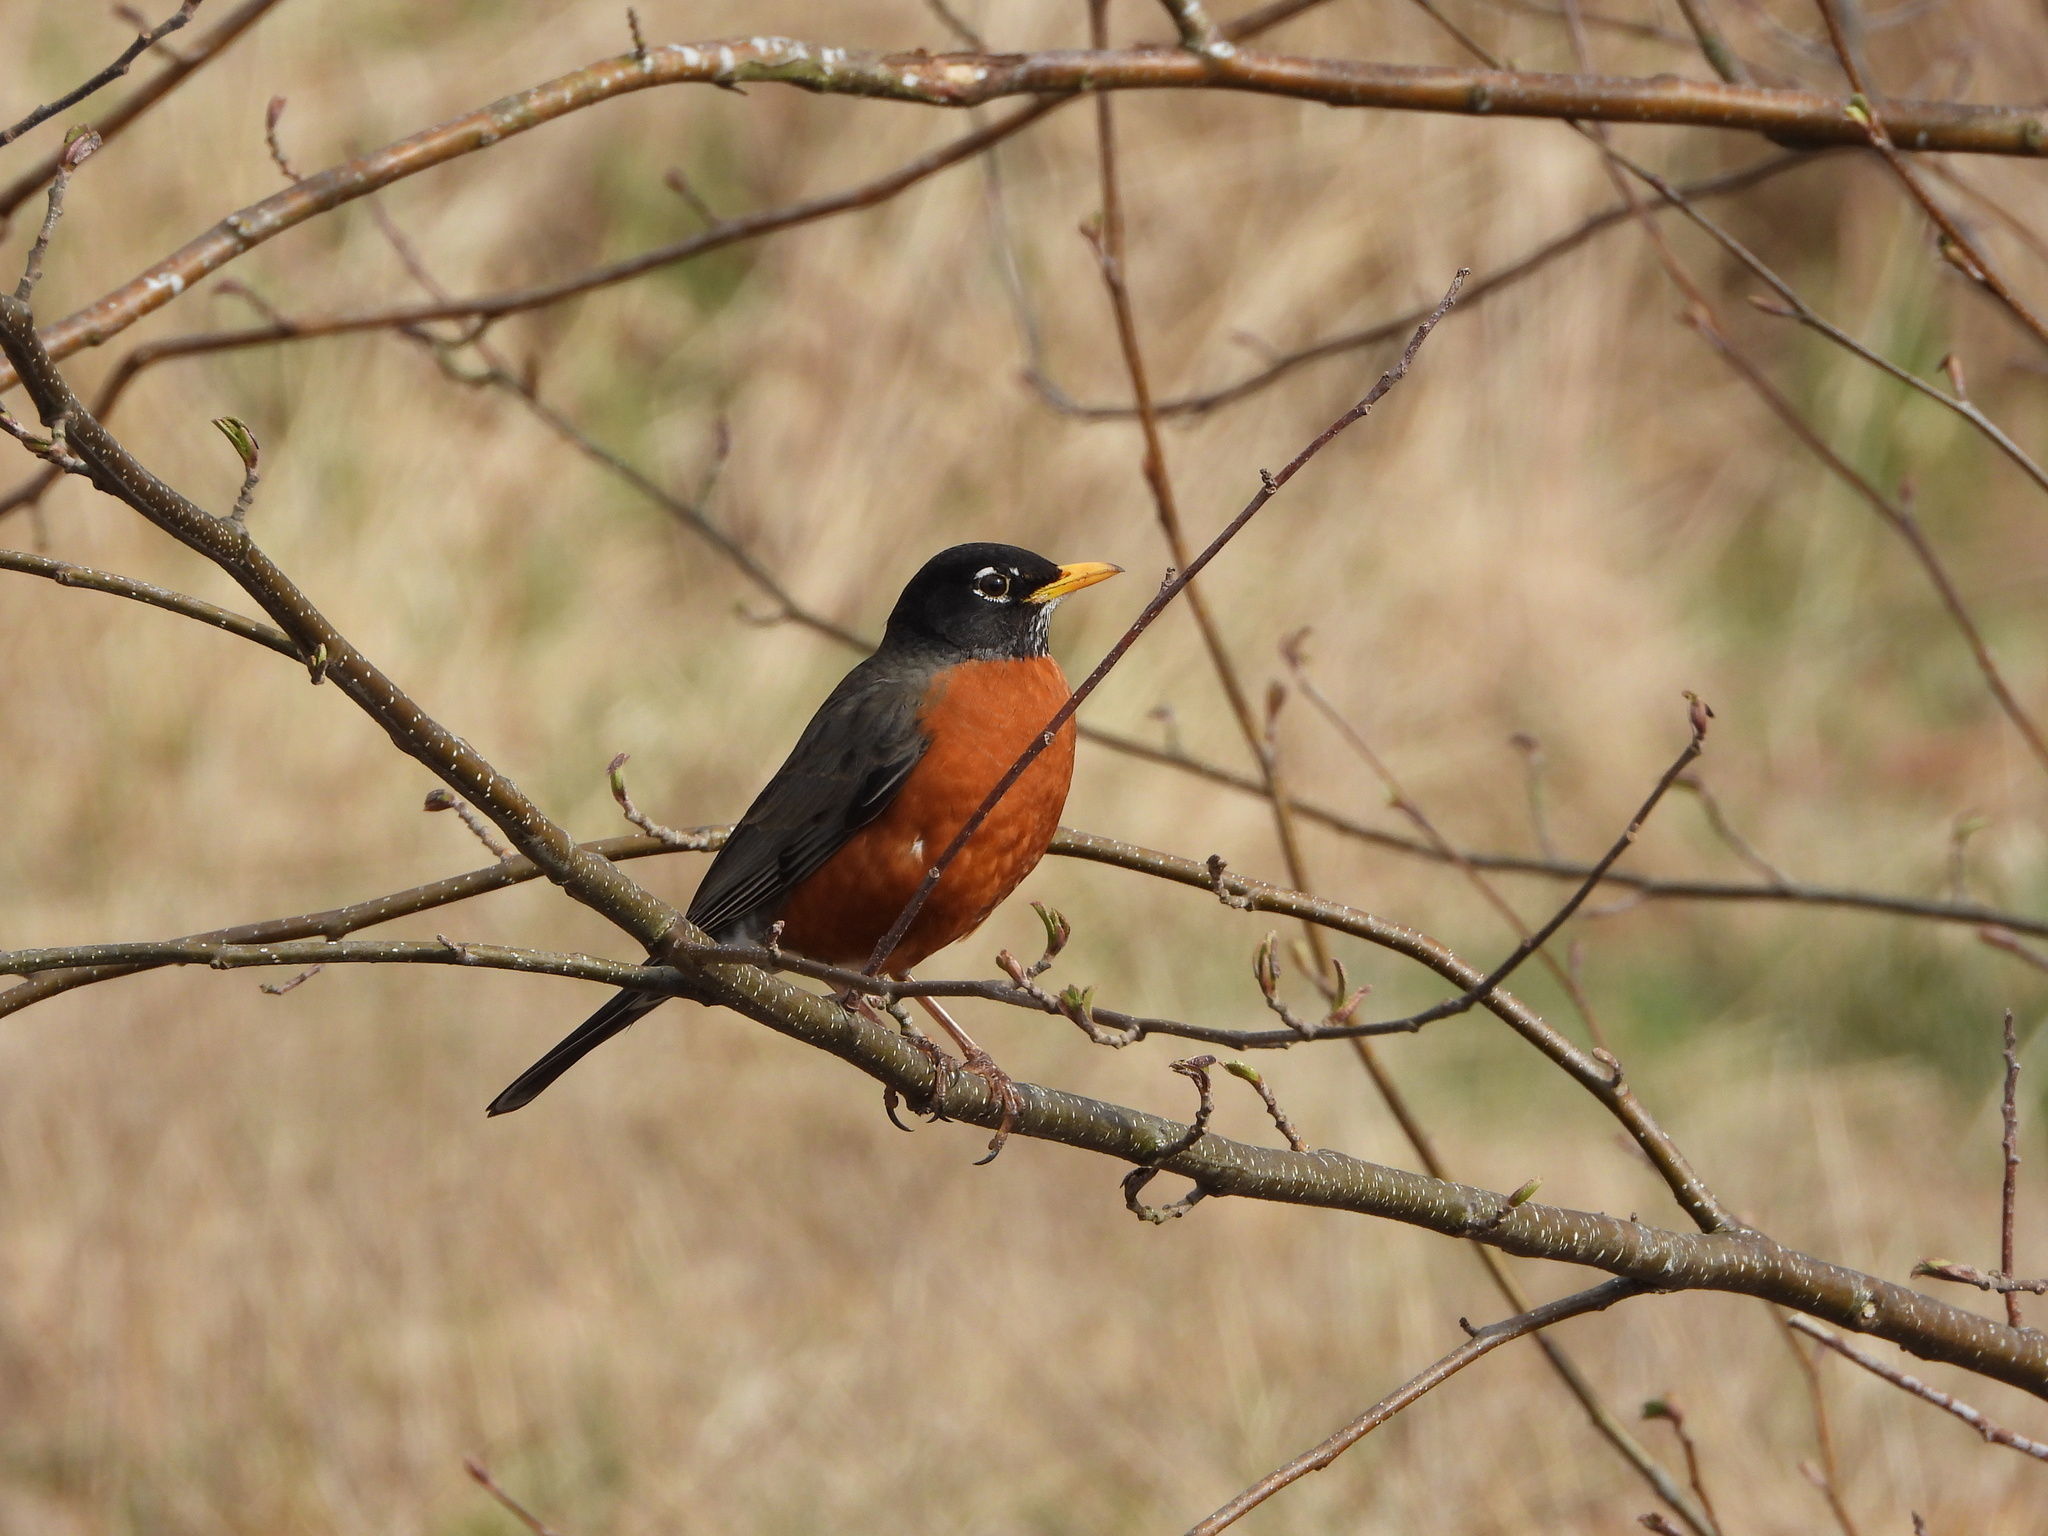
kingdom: Animalia
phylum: Chordata
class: Aves
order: Passeriformes
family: Turdidae
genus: Turdus
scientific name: Turdus migratorius
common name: American robin
